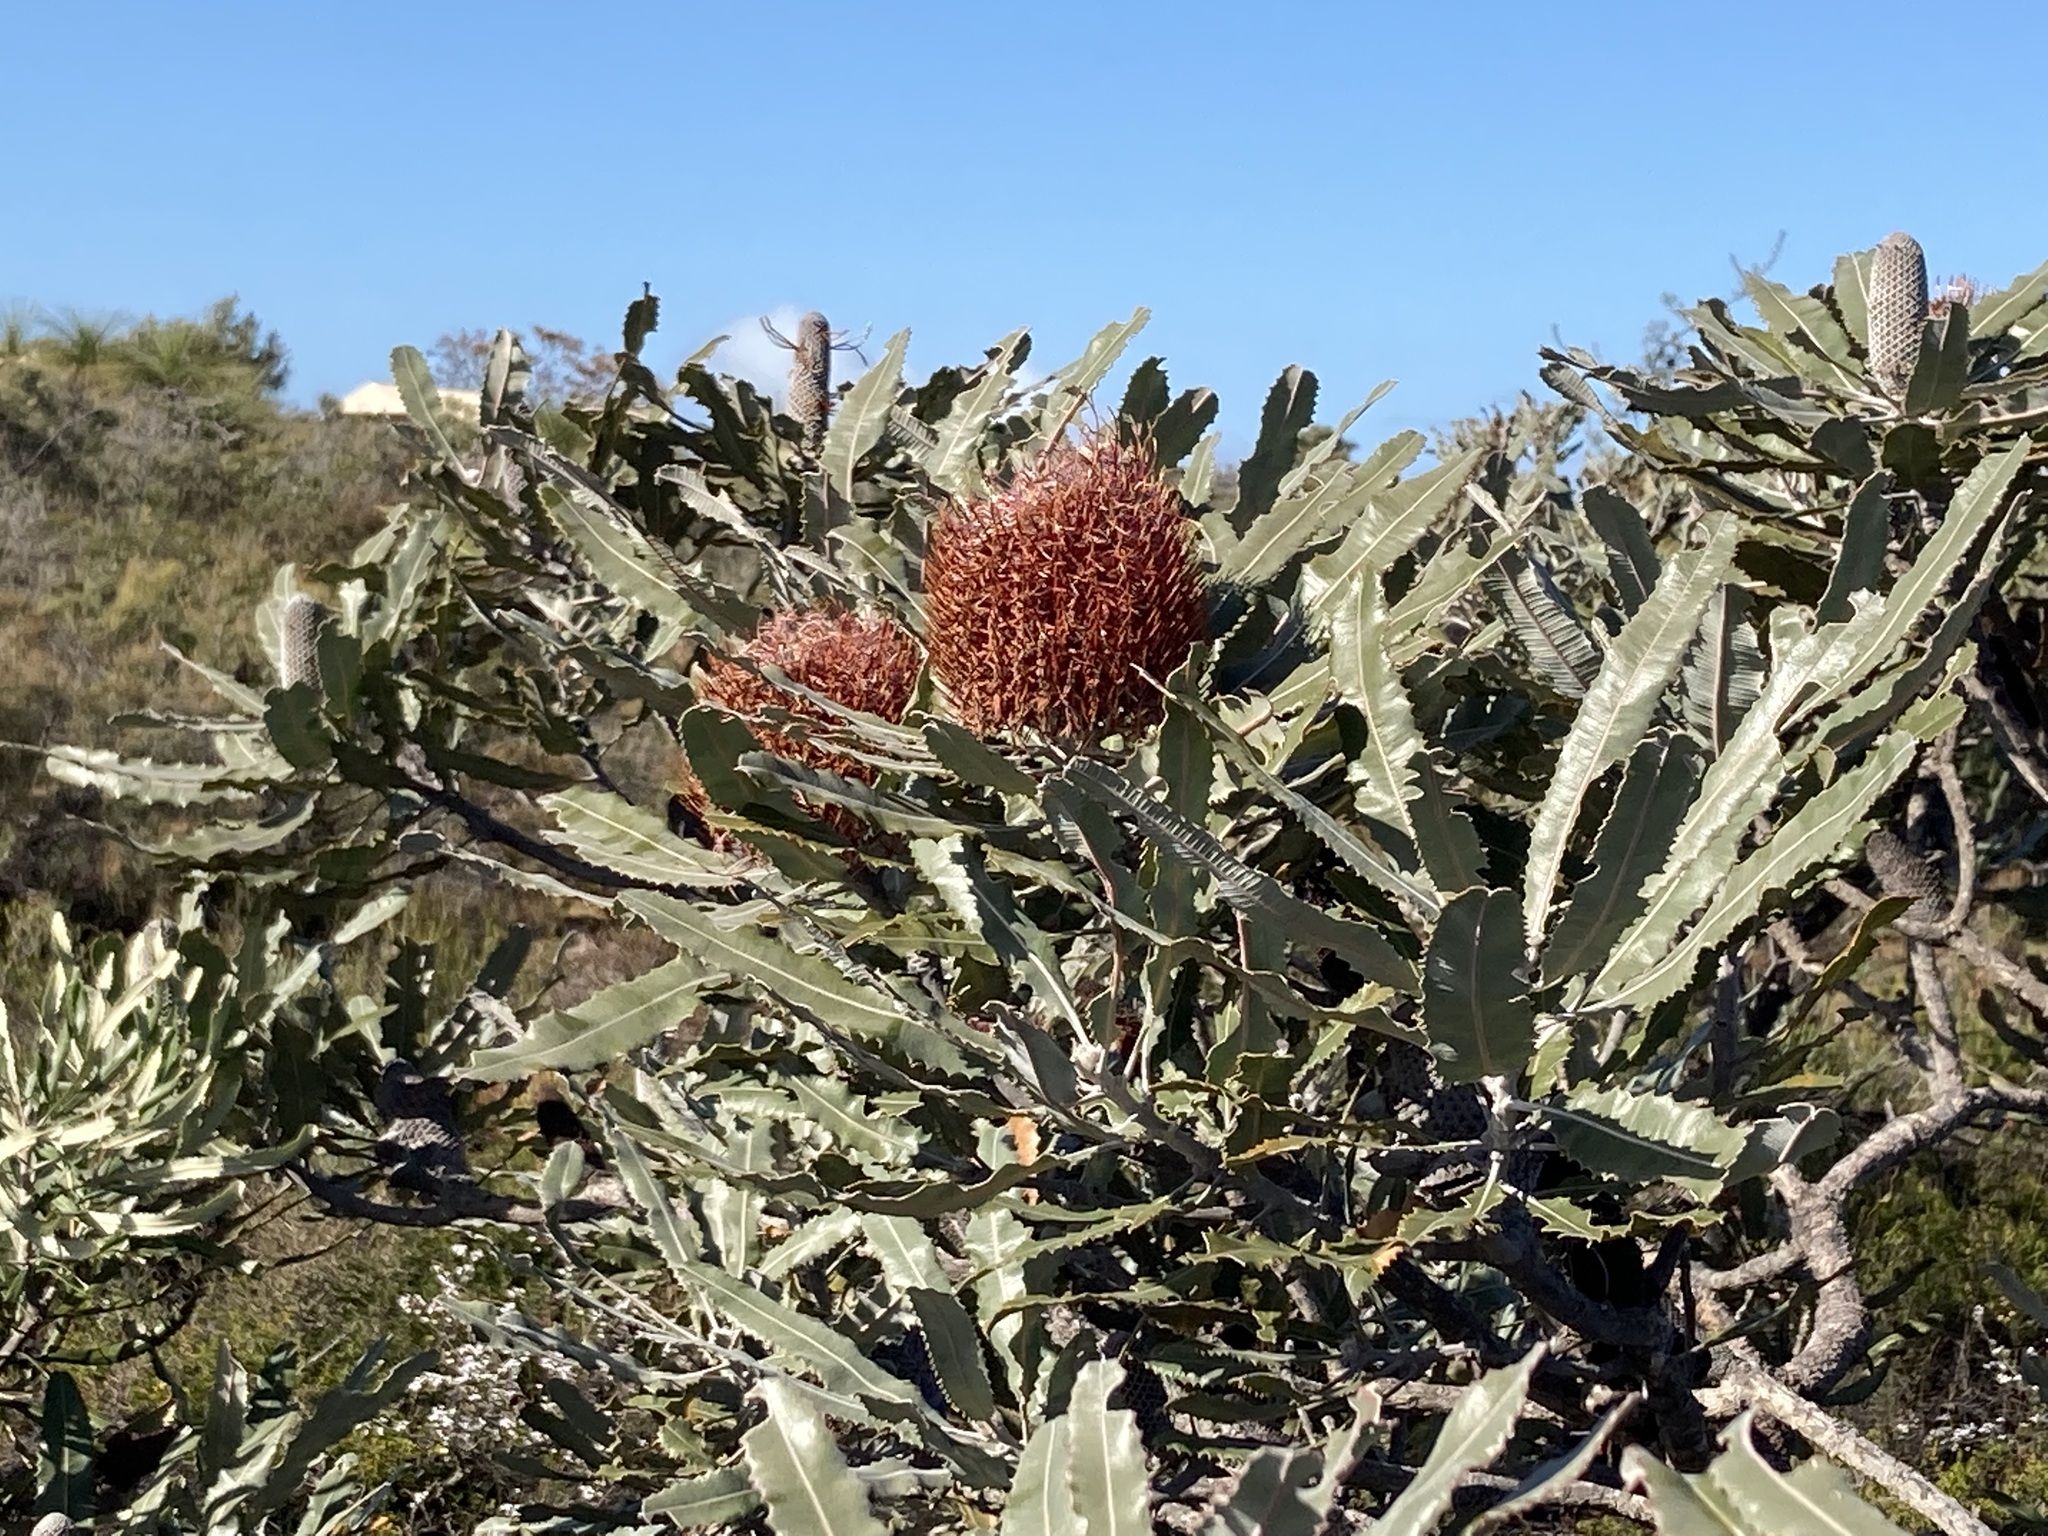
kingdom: Plantae
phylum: Tracheophyta
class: Magnoliopsida
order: Proteales
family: Proteaceae
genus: Banksia
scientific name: Banksia menziesii
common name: Menzie's banksia
